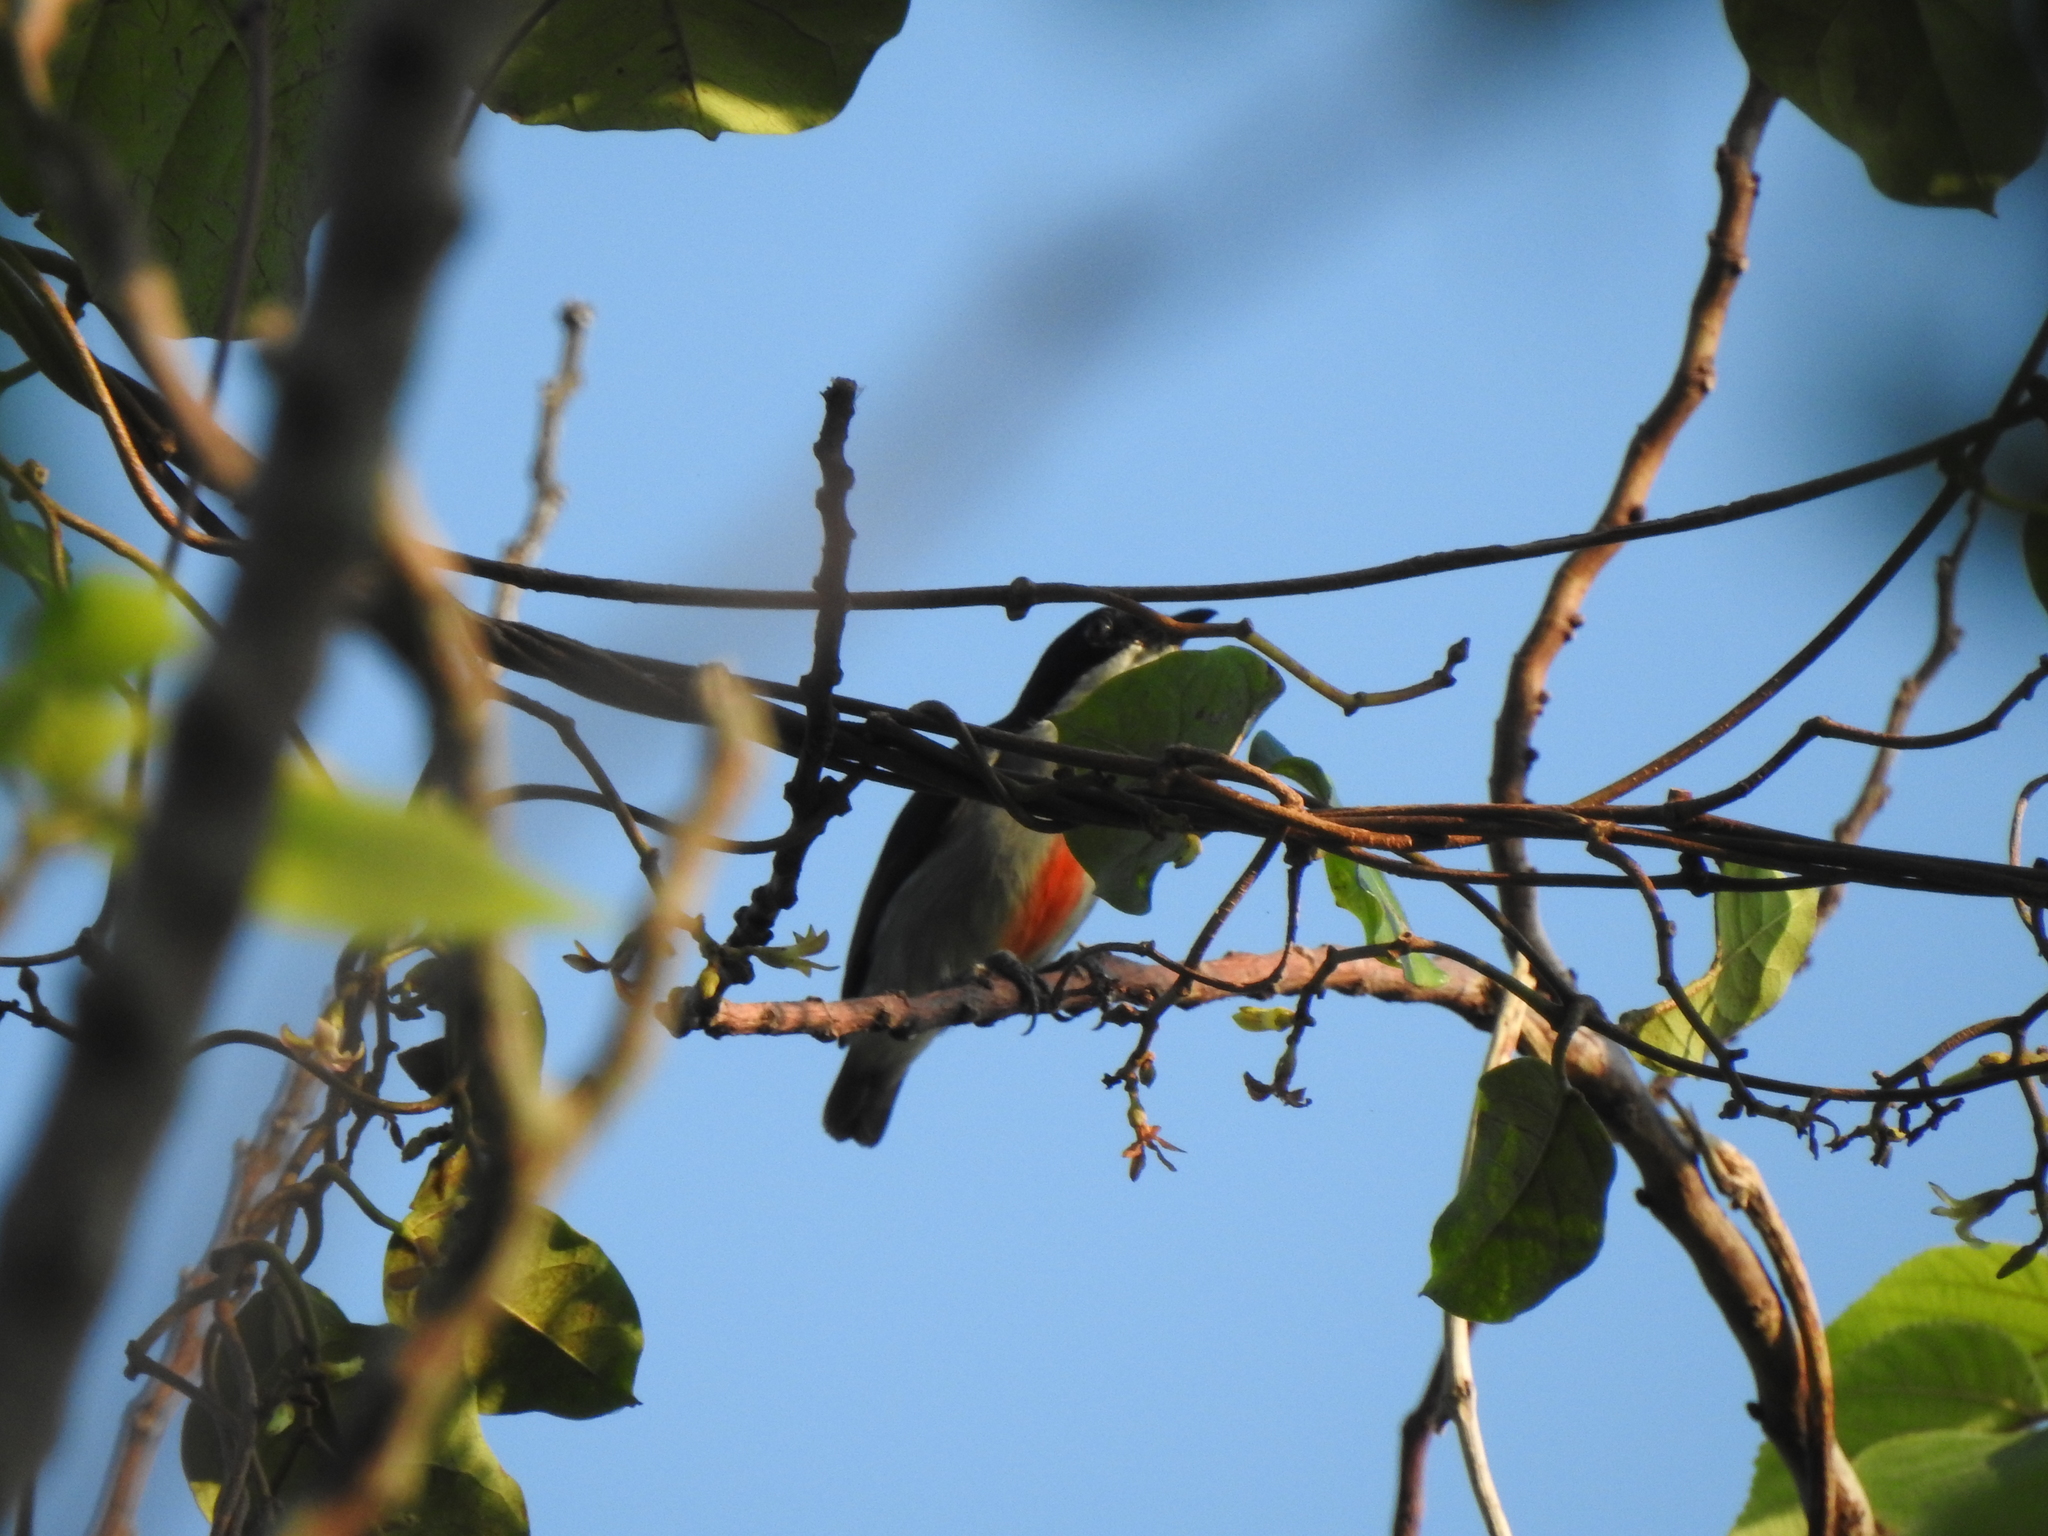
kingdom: Animalia
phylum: Chordata
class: Aves
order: Passeriformes
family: Dicaeidae
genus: Dicaeum
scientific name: Dicaeum australe
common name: Red-keeled flowerpecker
